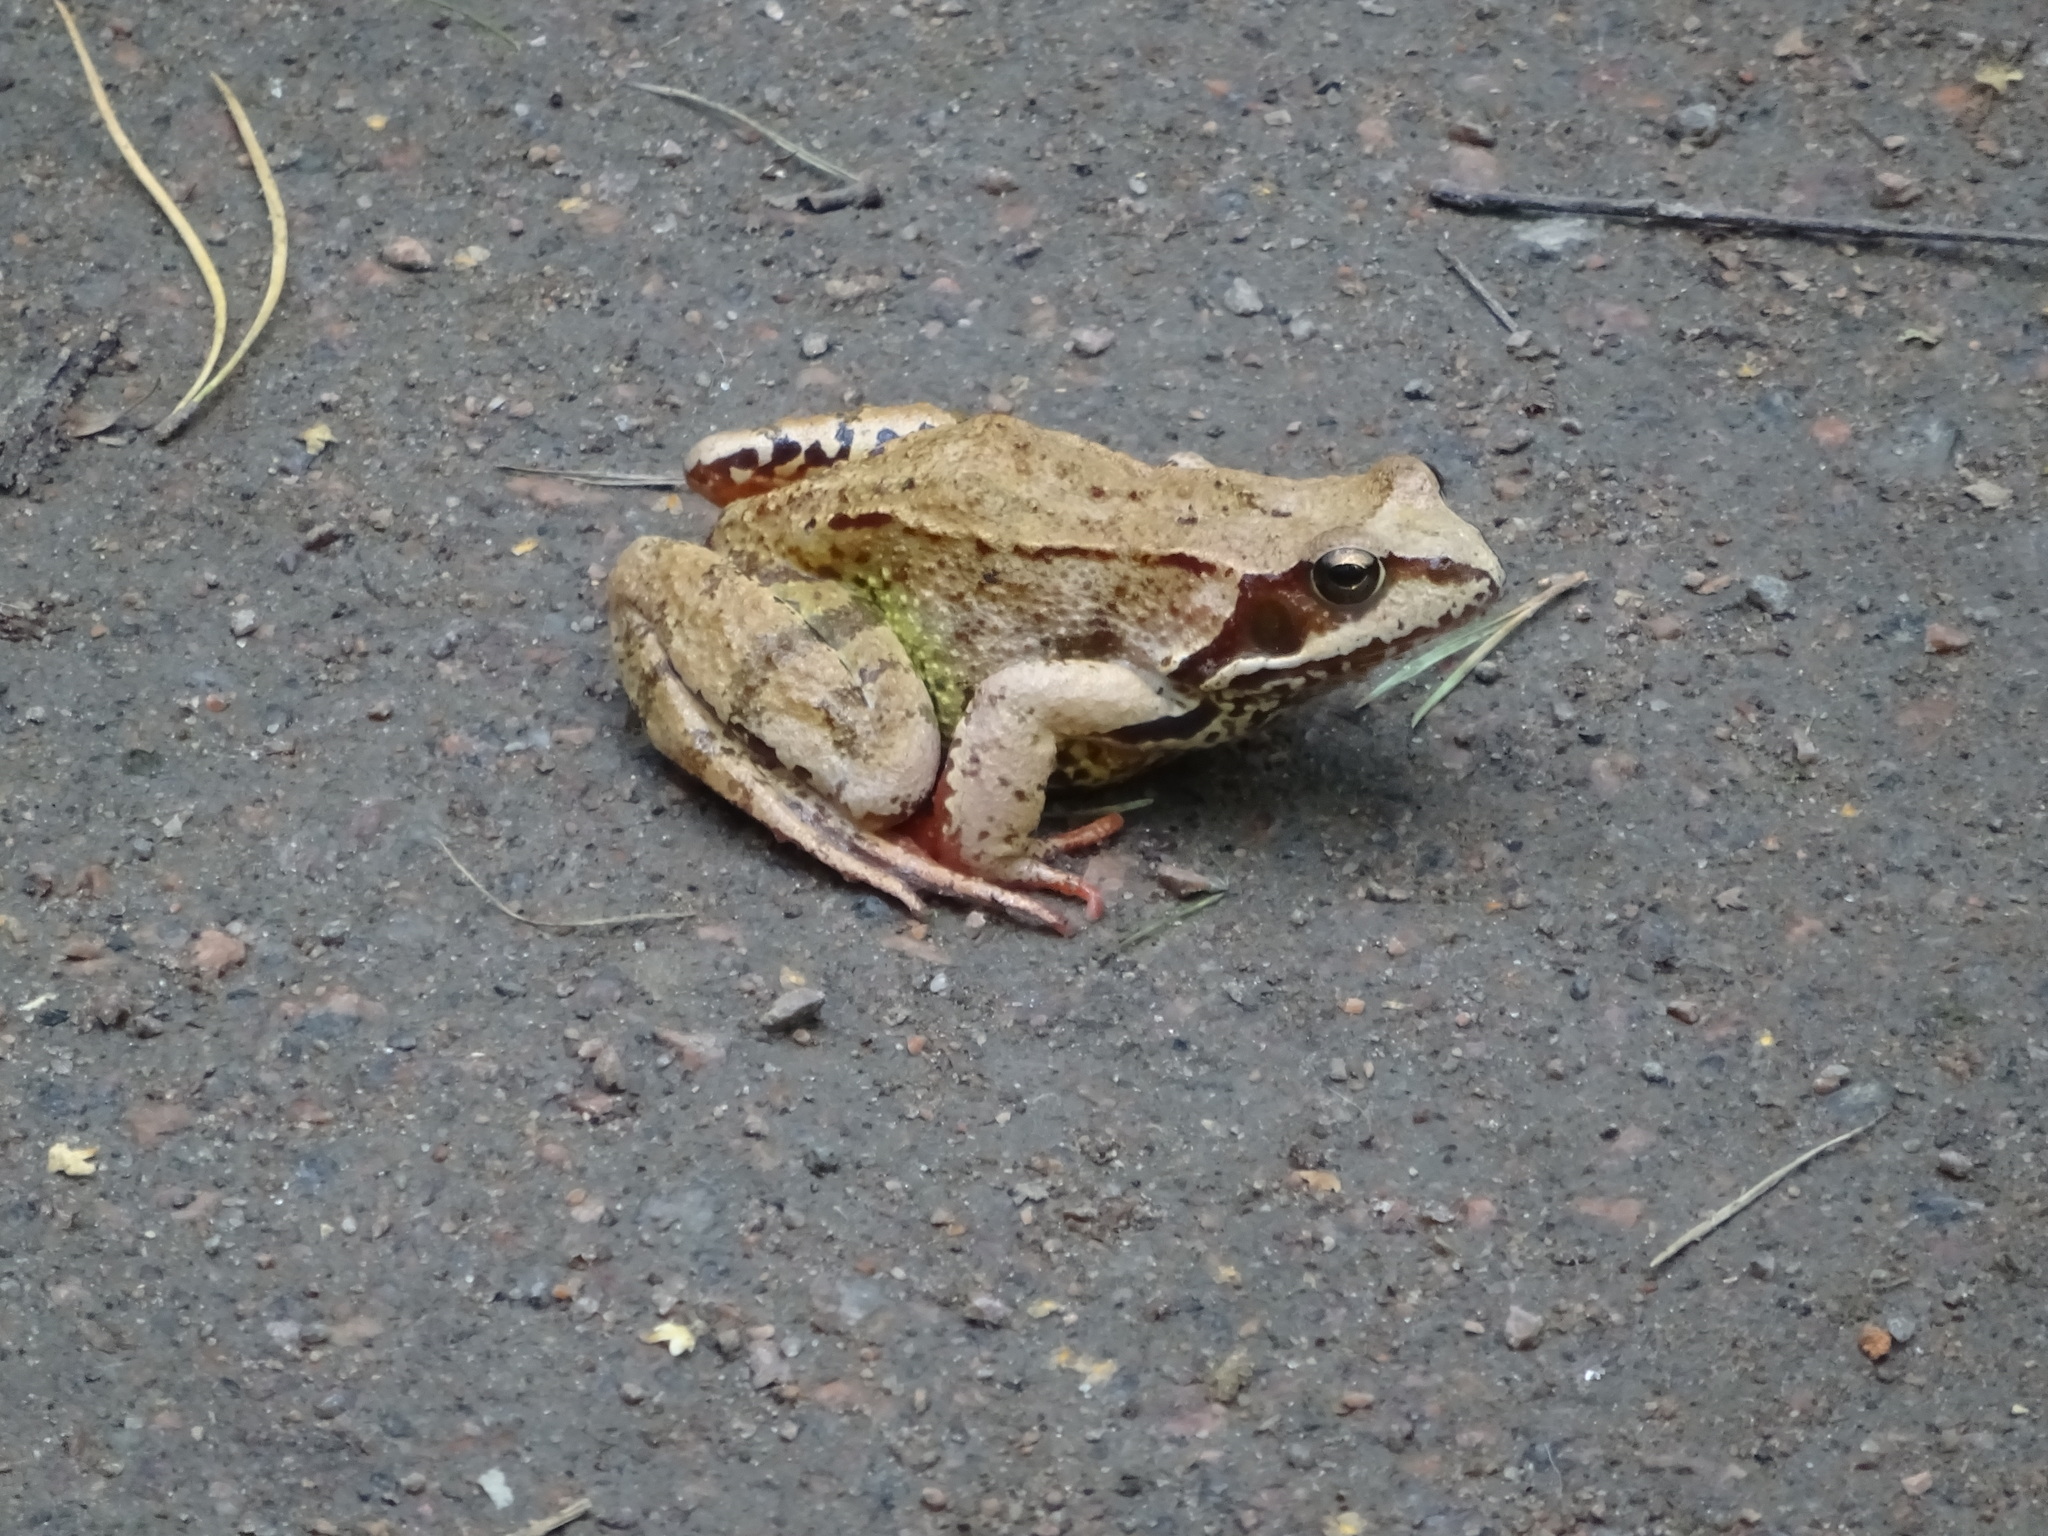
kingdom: Animalia
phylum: Chordata
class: Amphibia
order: Anura
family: Ranidae
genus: Rana
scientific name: Rana temporaria
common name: Common frog
